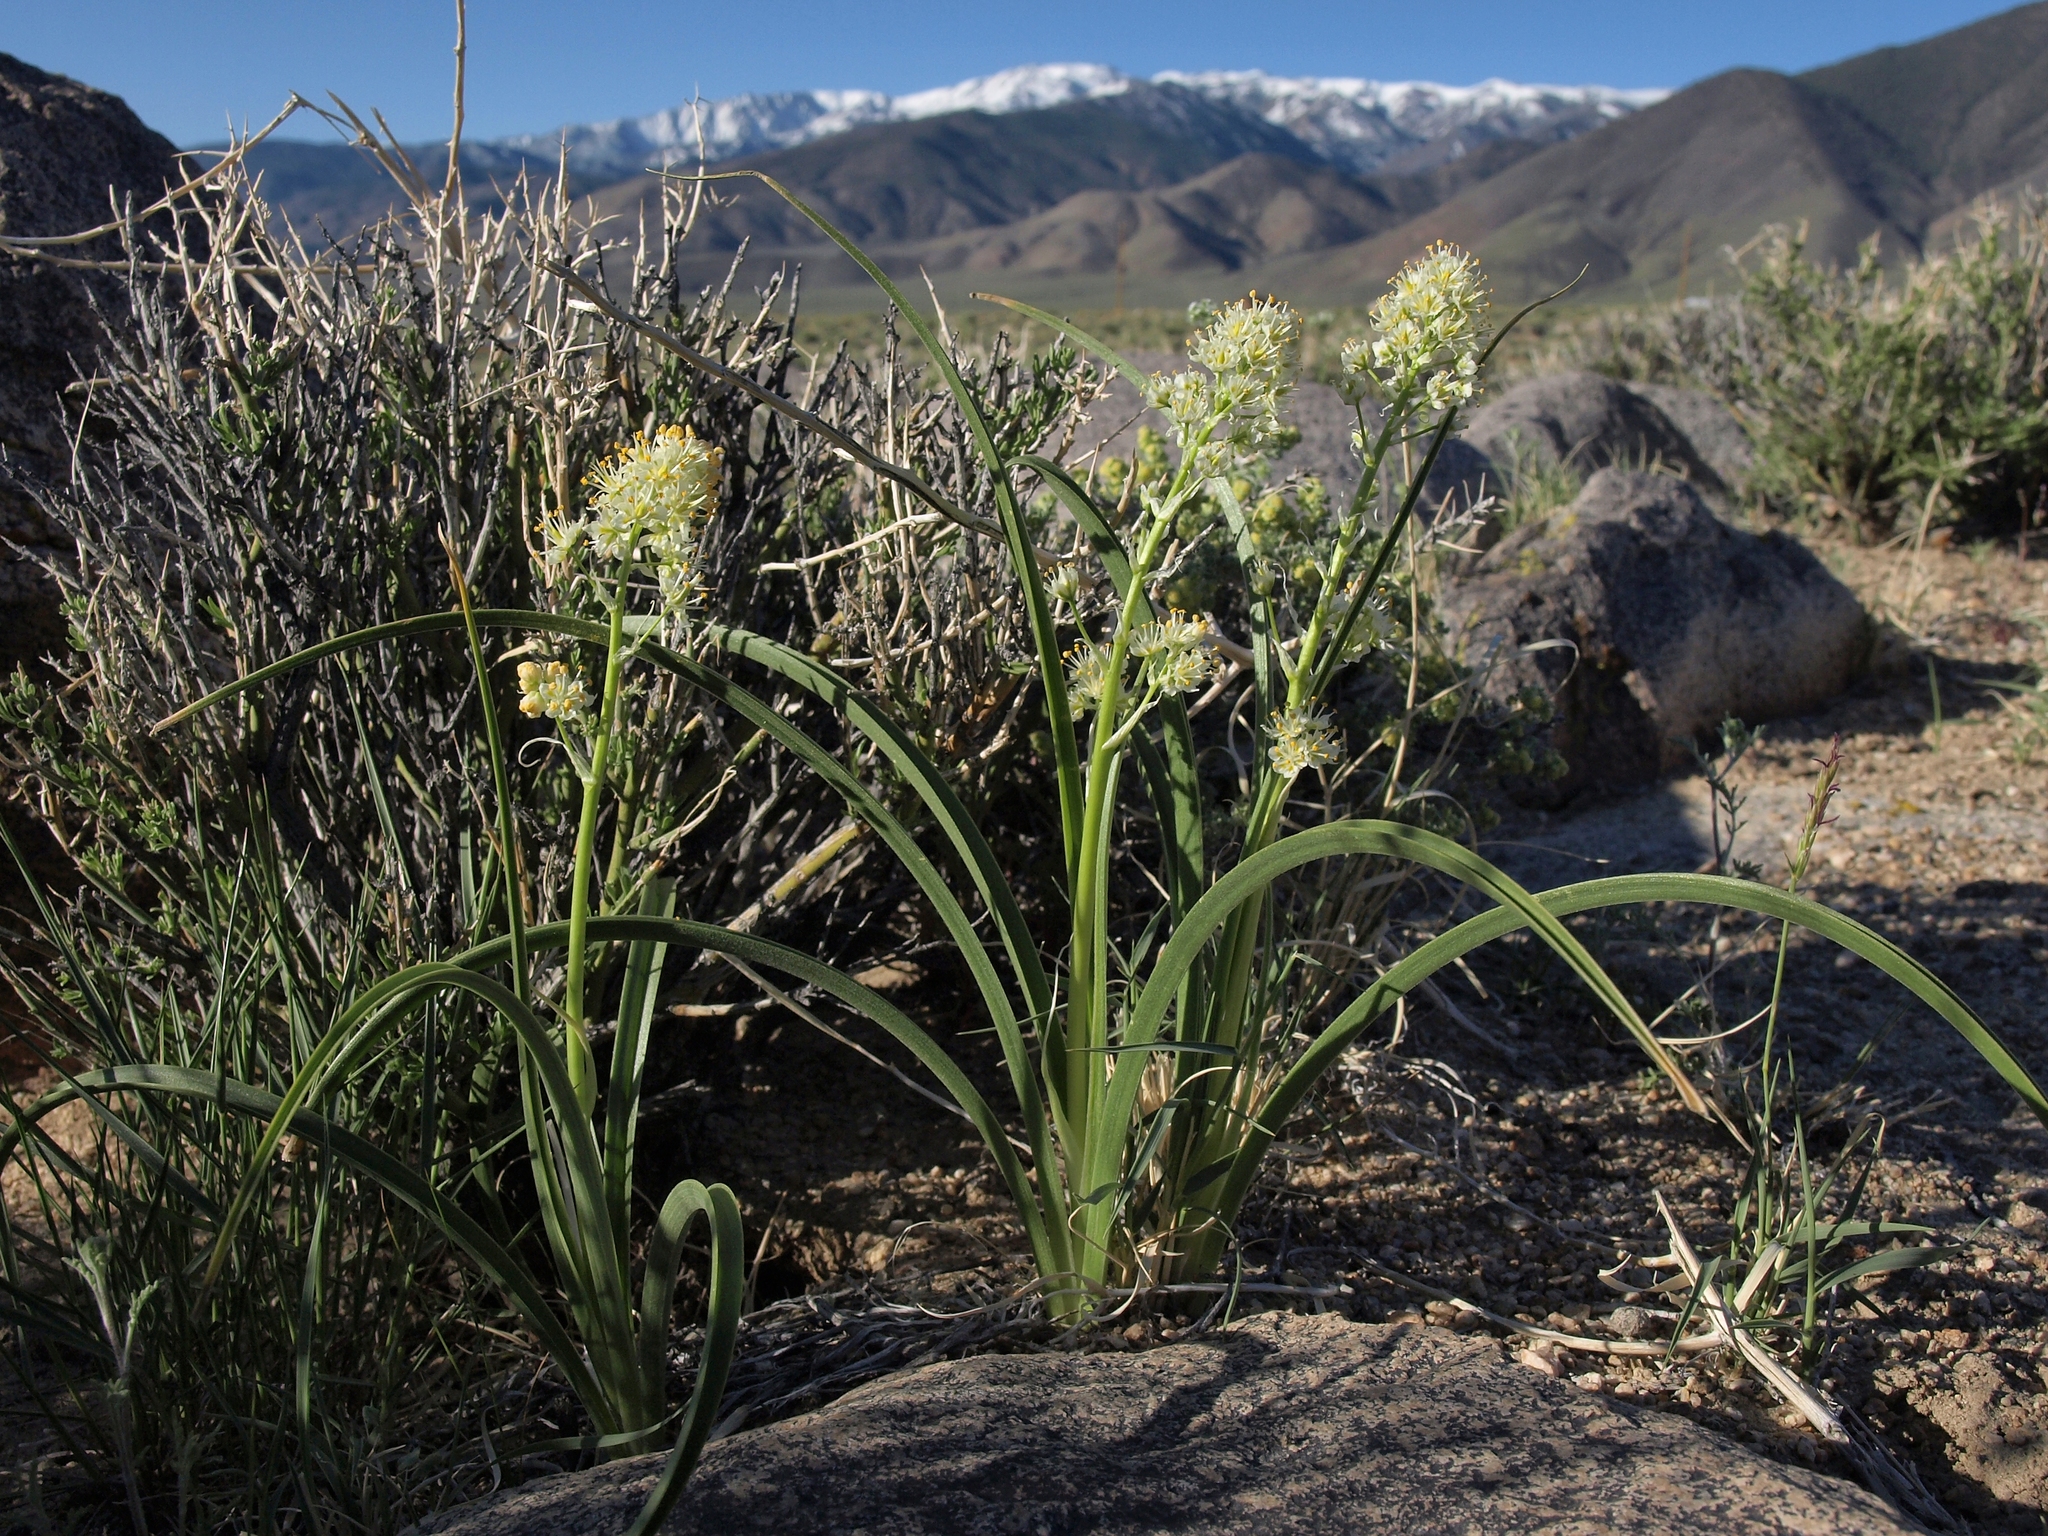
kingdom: Plantae
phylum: Tracheophyta
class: Liliopsida
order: Liliales
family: Melanthiaceae
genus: Toxicoscordion
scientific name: Toxicoscordion paniculatum
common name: Foothill death camas
